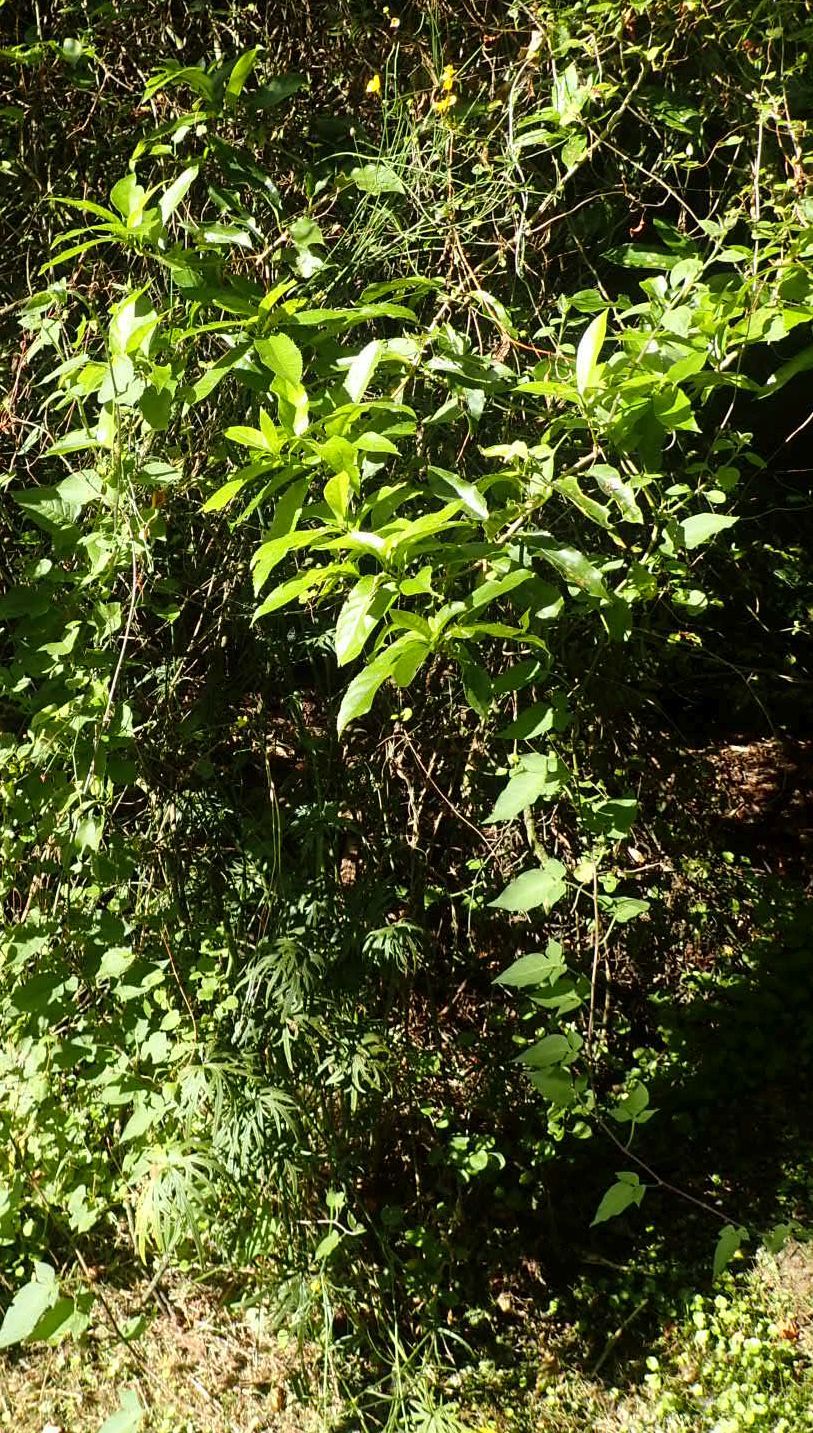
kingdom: Plantae
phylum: Tracheophyta
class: Magnoliopsida
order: Ranunculales
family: Ranunculaceae
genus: Ranunculus
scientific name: Ranunculus acris
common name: Meadow buttercup
